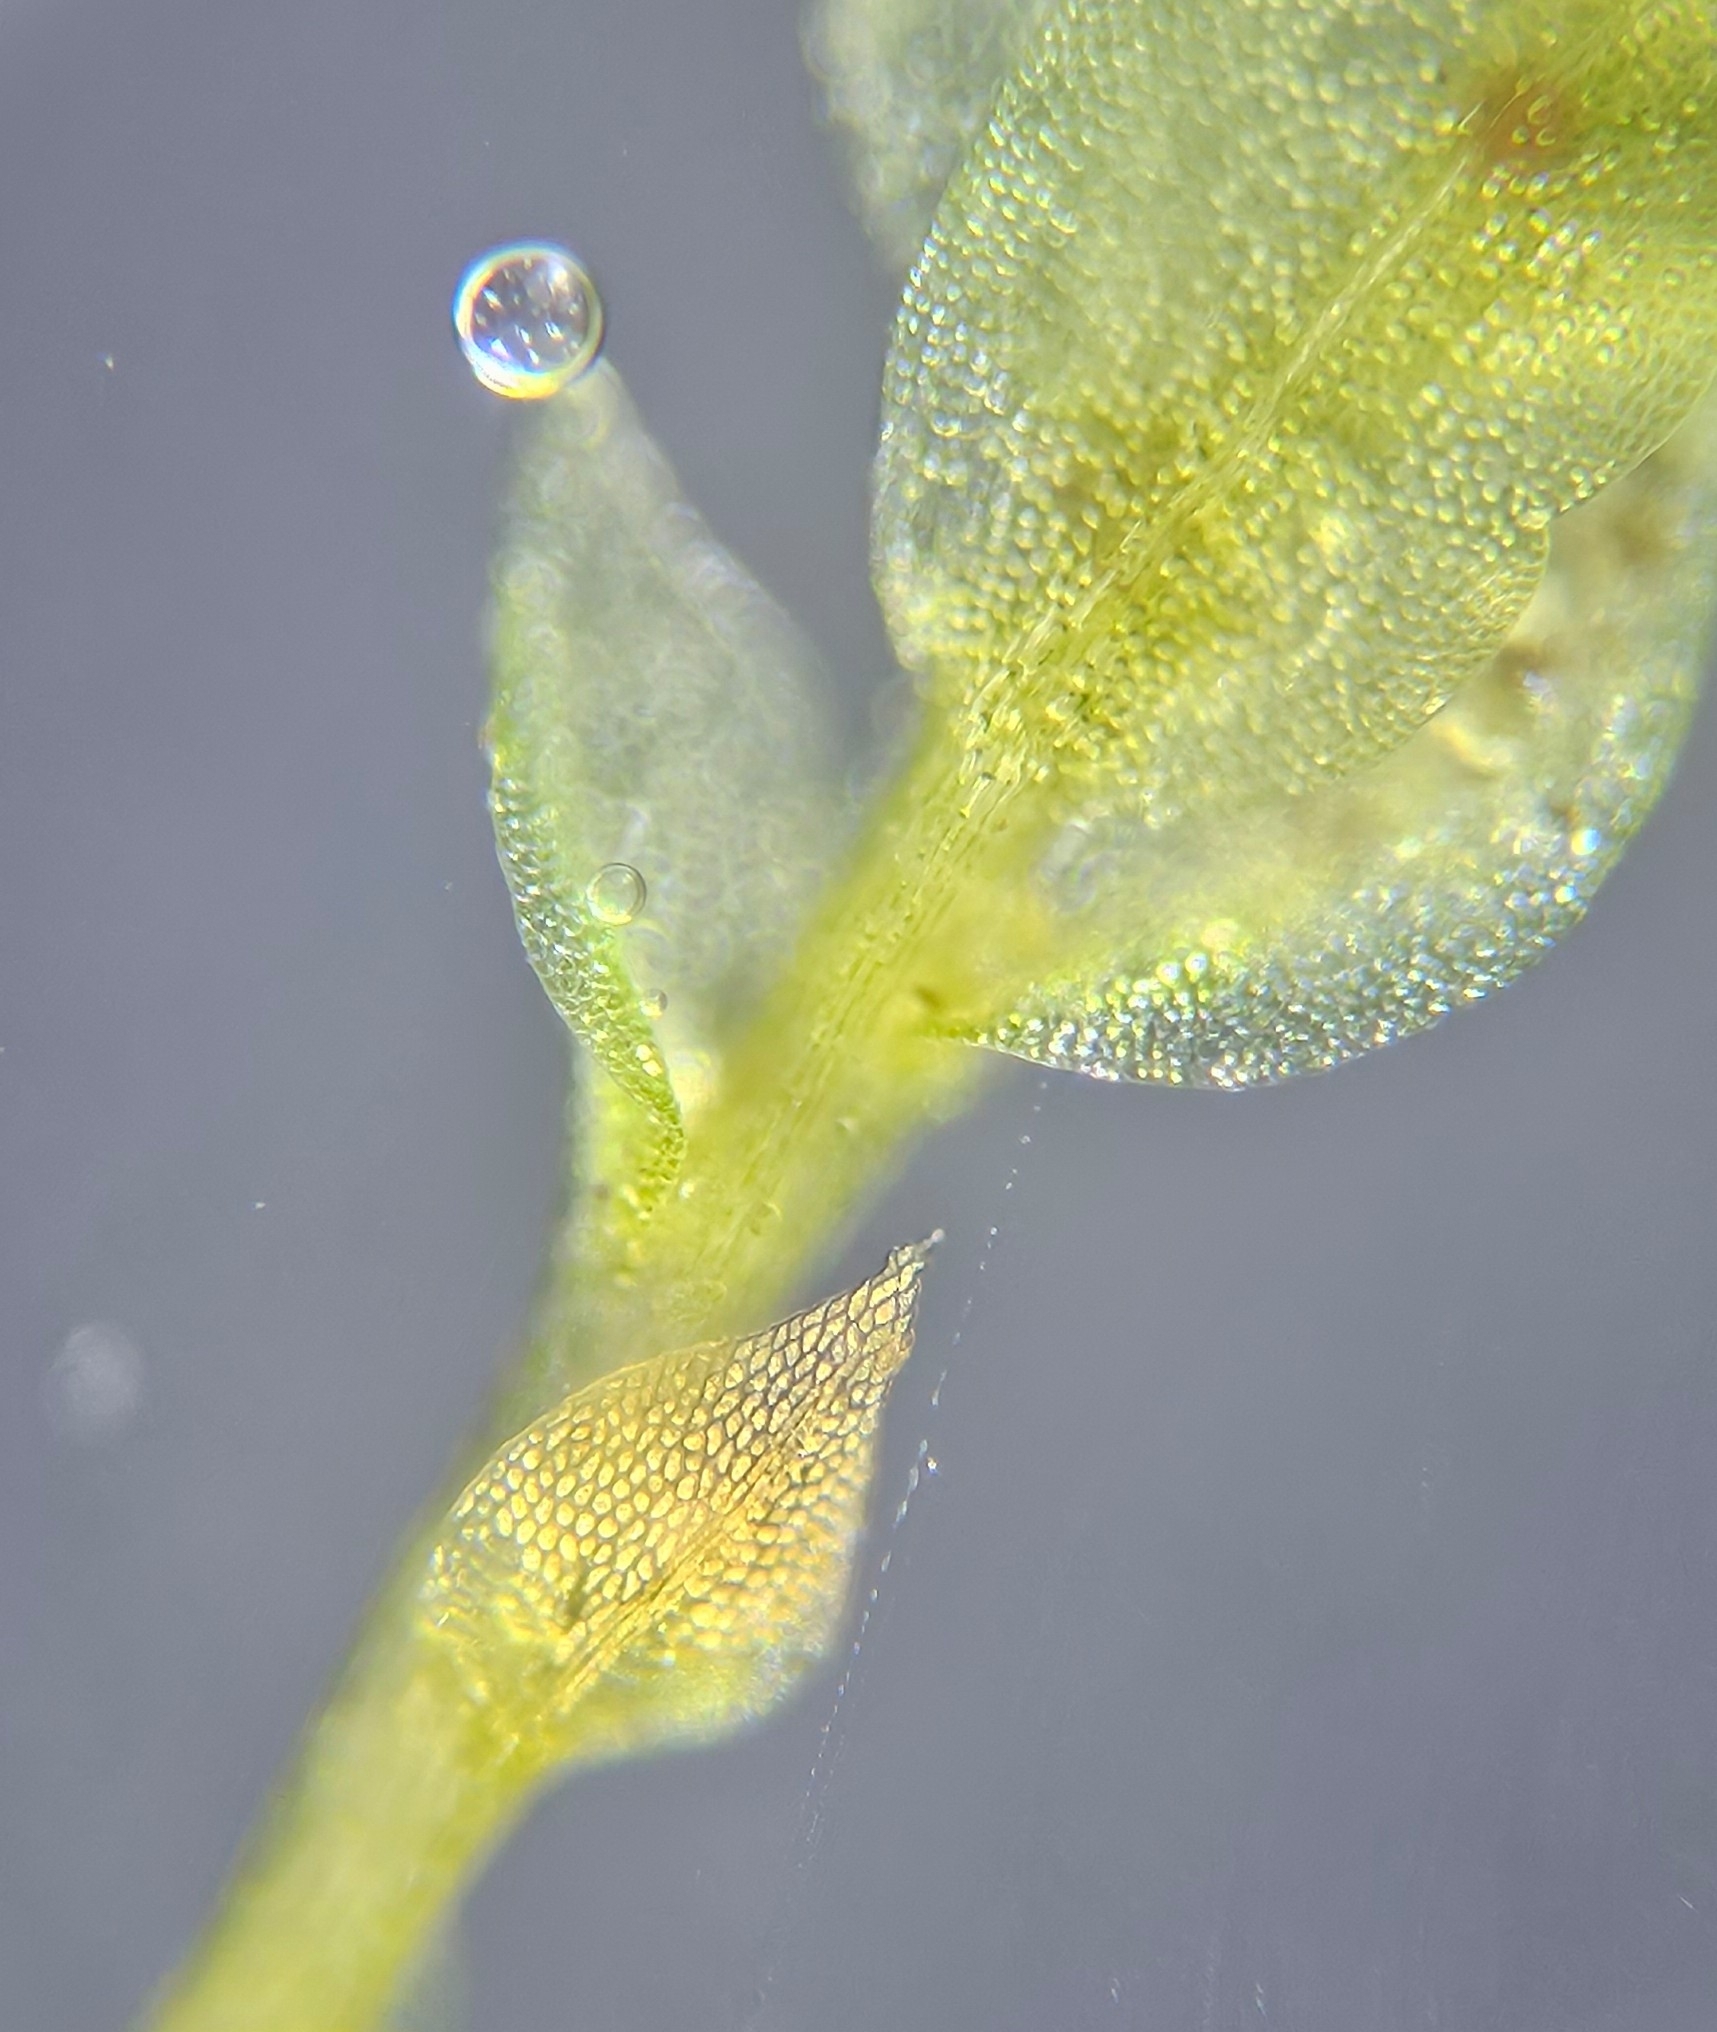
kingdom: Plantae
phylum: Bryophyta
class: Polytrichopsida
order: Tetraphidales
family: Tetraphidaceae
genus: Tetraphis
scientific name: Tetraphis pellucida
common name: Common four-toothed moss
